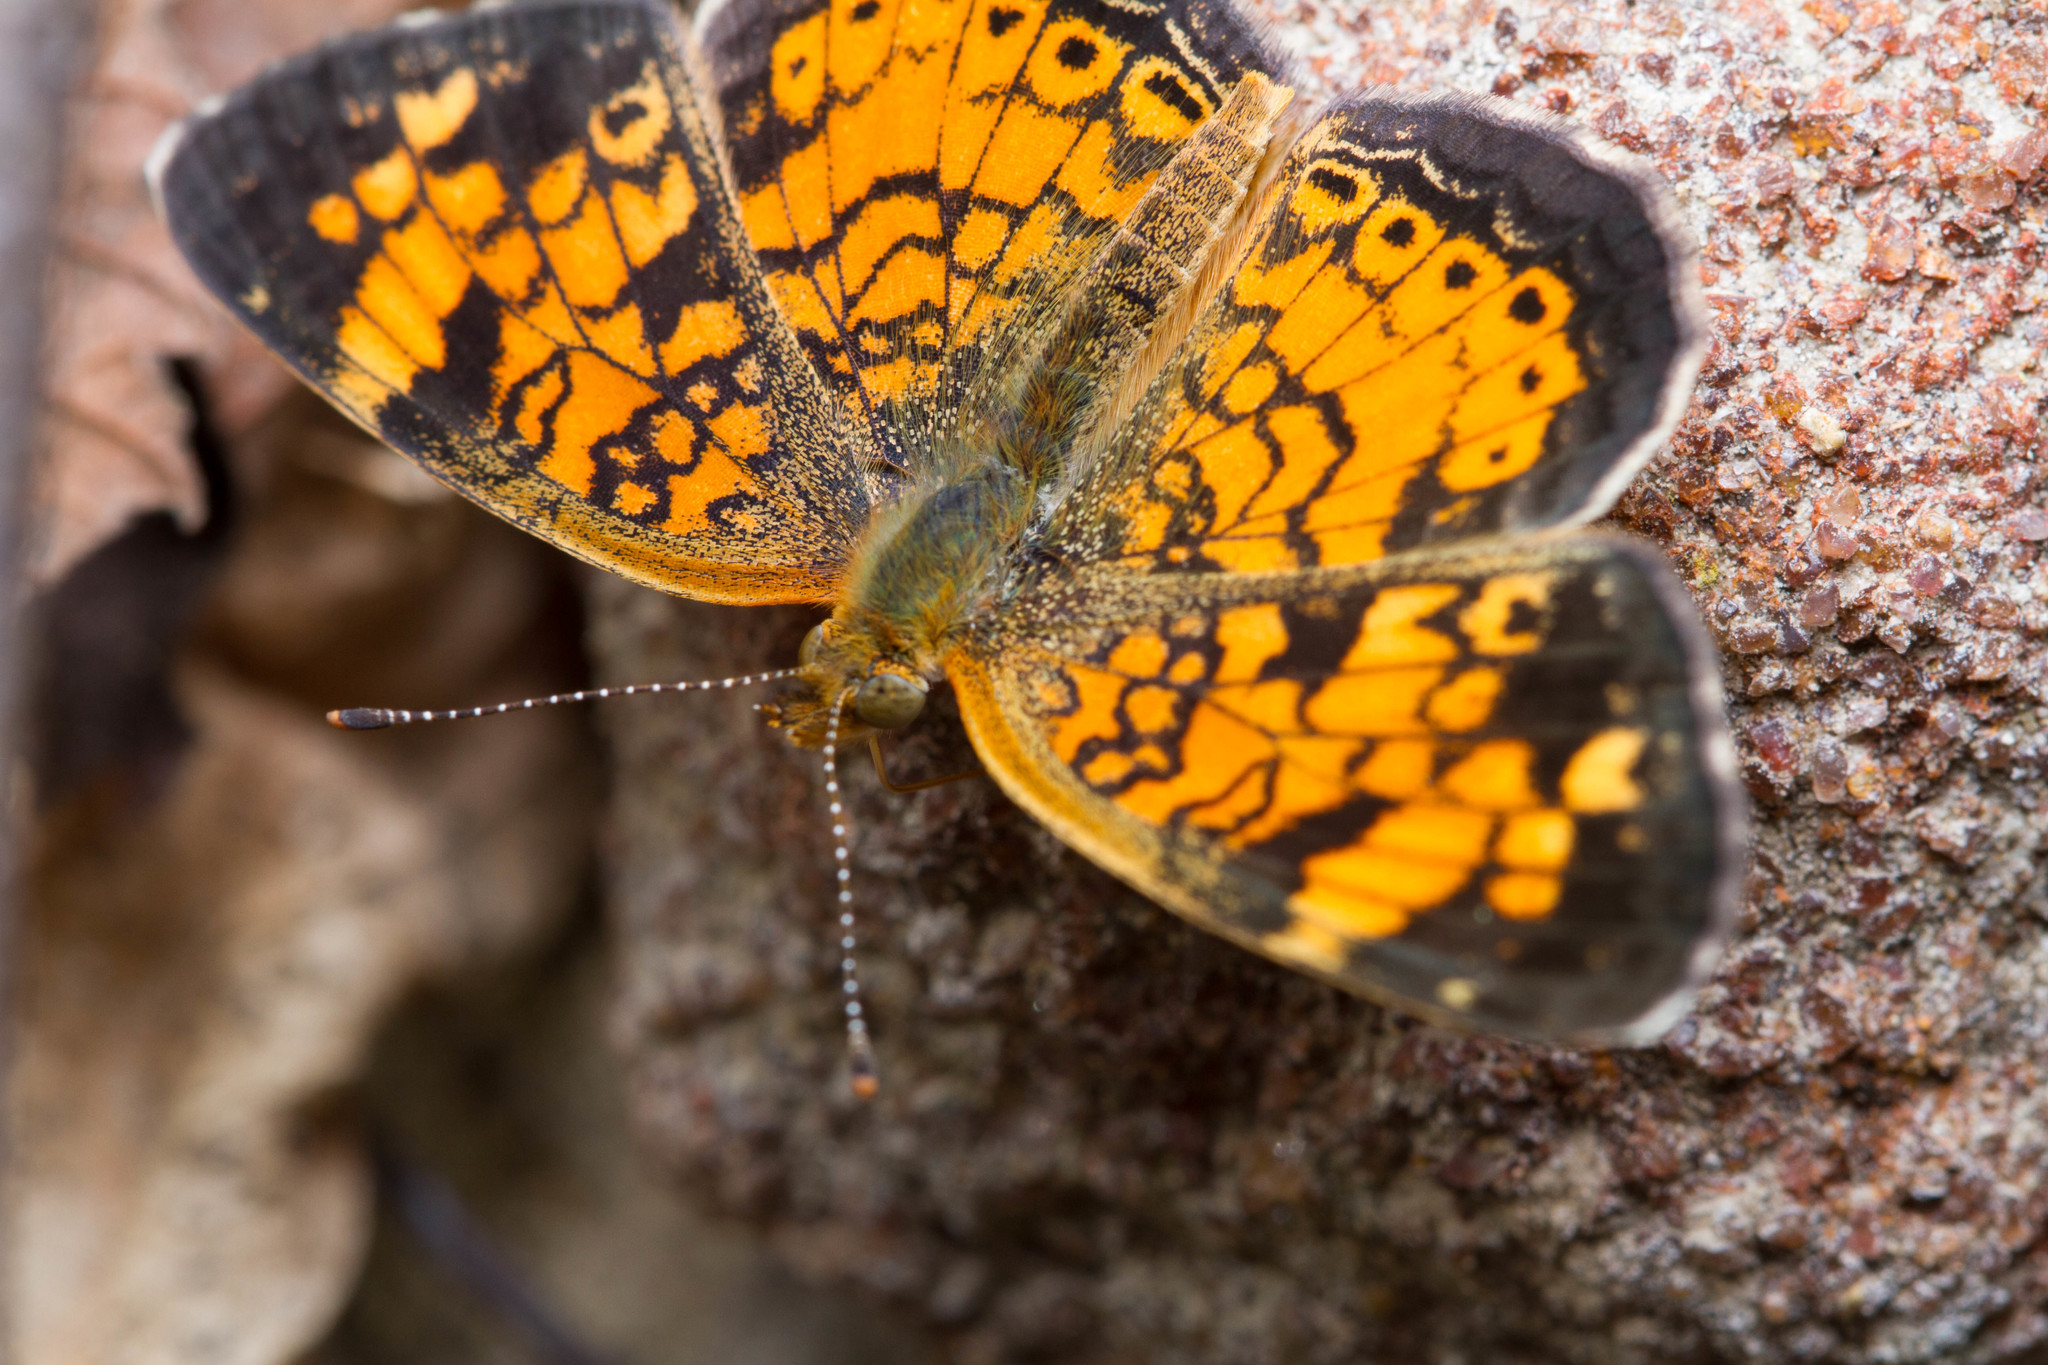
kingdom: Animalia
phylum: Arthropoda
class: Insecta
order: Lepidoptera
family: Nymphalidae
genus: Phyciodes
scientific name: Phyciodes tharos
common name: Pearl crescent
